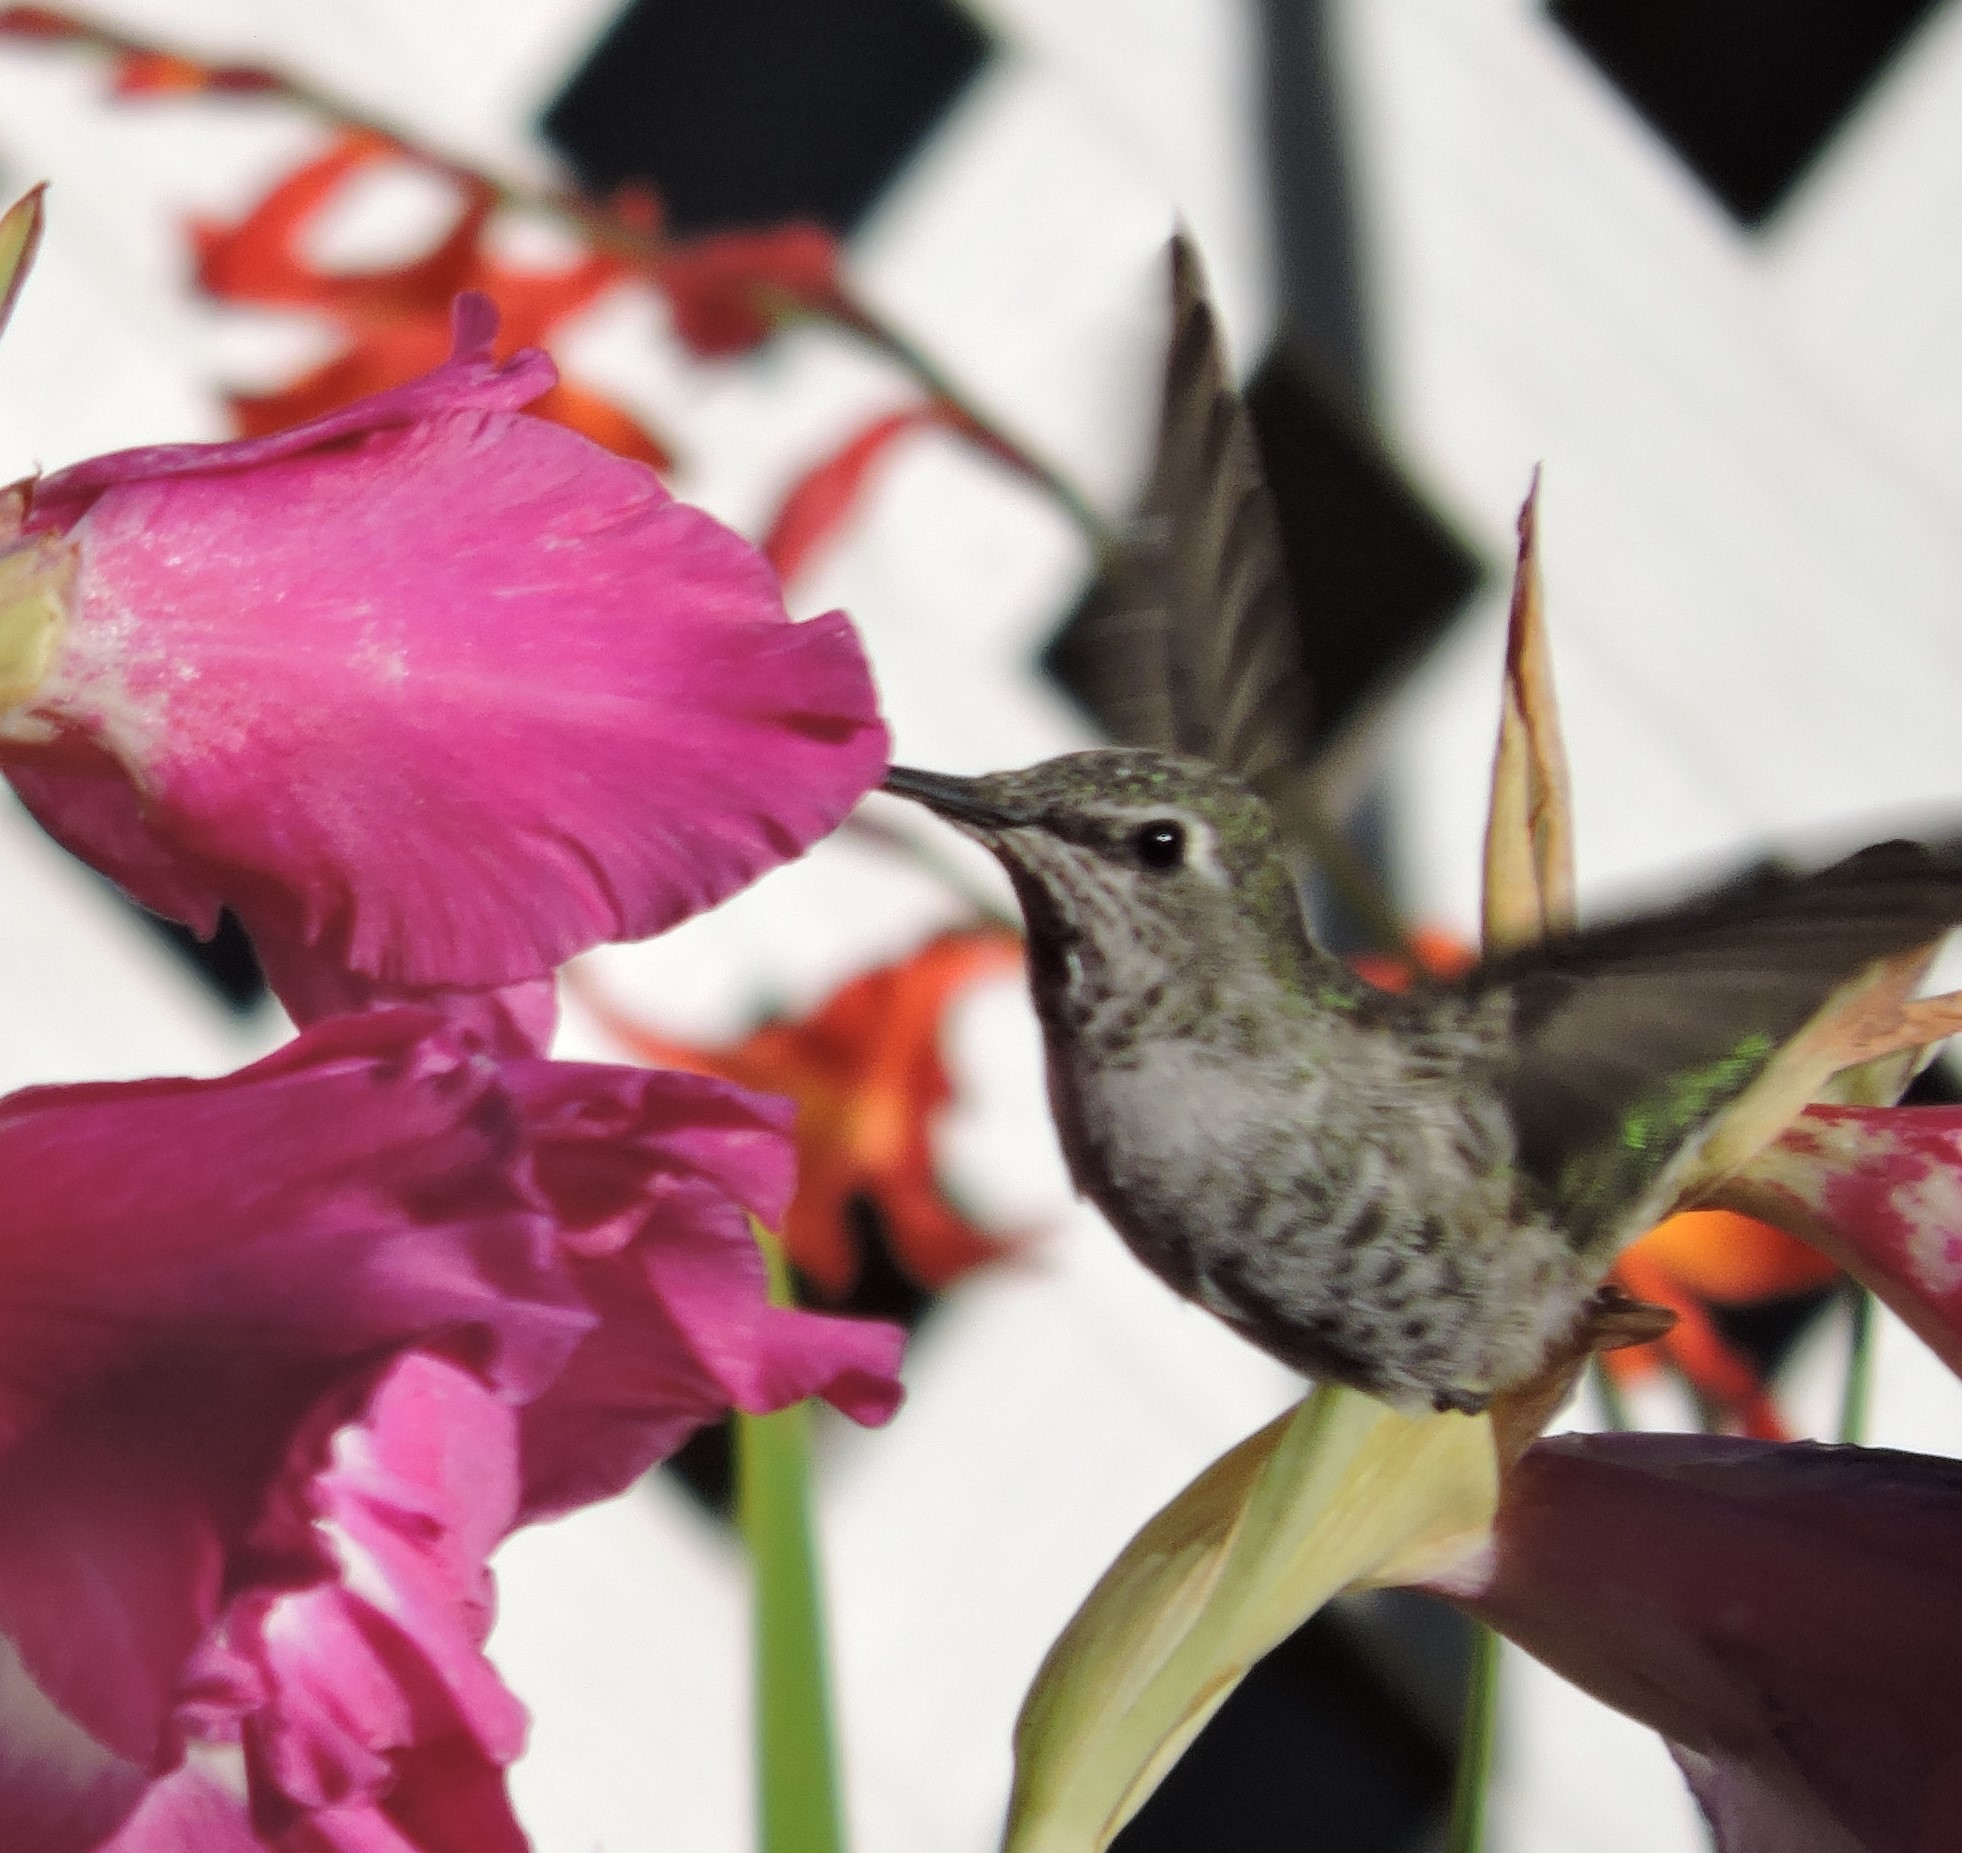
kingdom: Animalia
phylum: Chordata
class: Aves
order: Apodiformes
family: Trochilidae
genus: Calypte
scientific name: Calypte anna
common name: Anna's hummingbird
